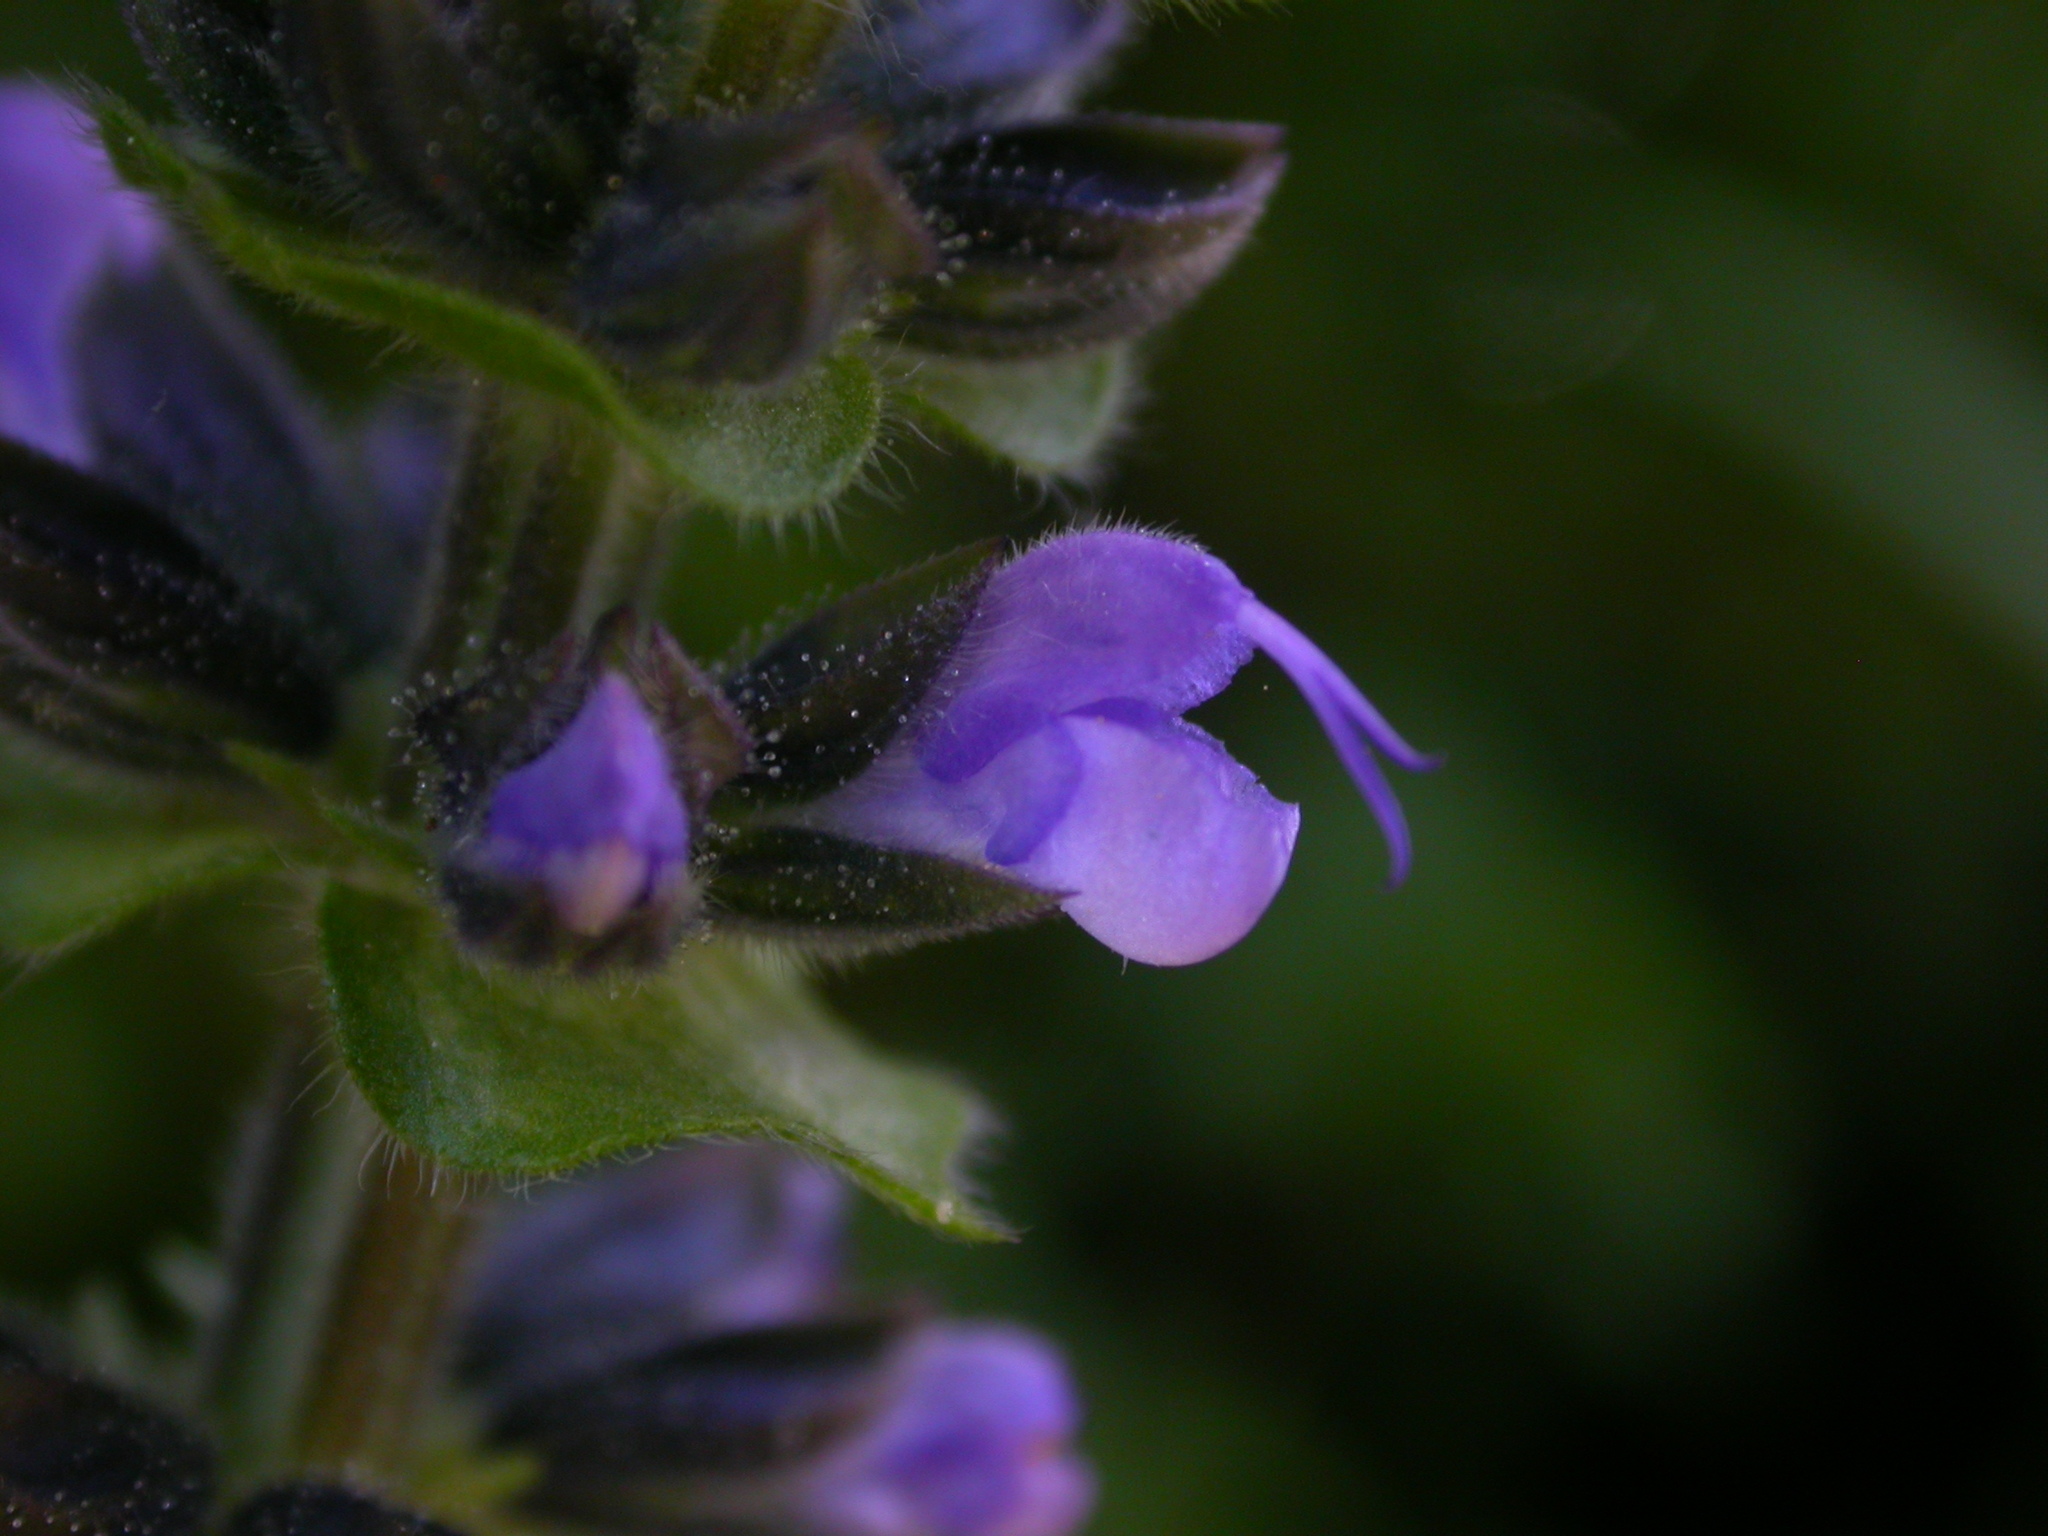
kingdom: Plantae
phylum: Tracheophyta
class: Magnoliopsida
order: Lamiales
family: Lamiaceae
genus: Salvia
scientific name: Salvia verbenaca
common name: Wild clary
